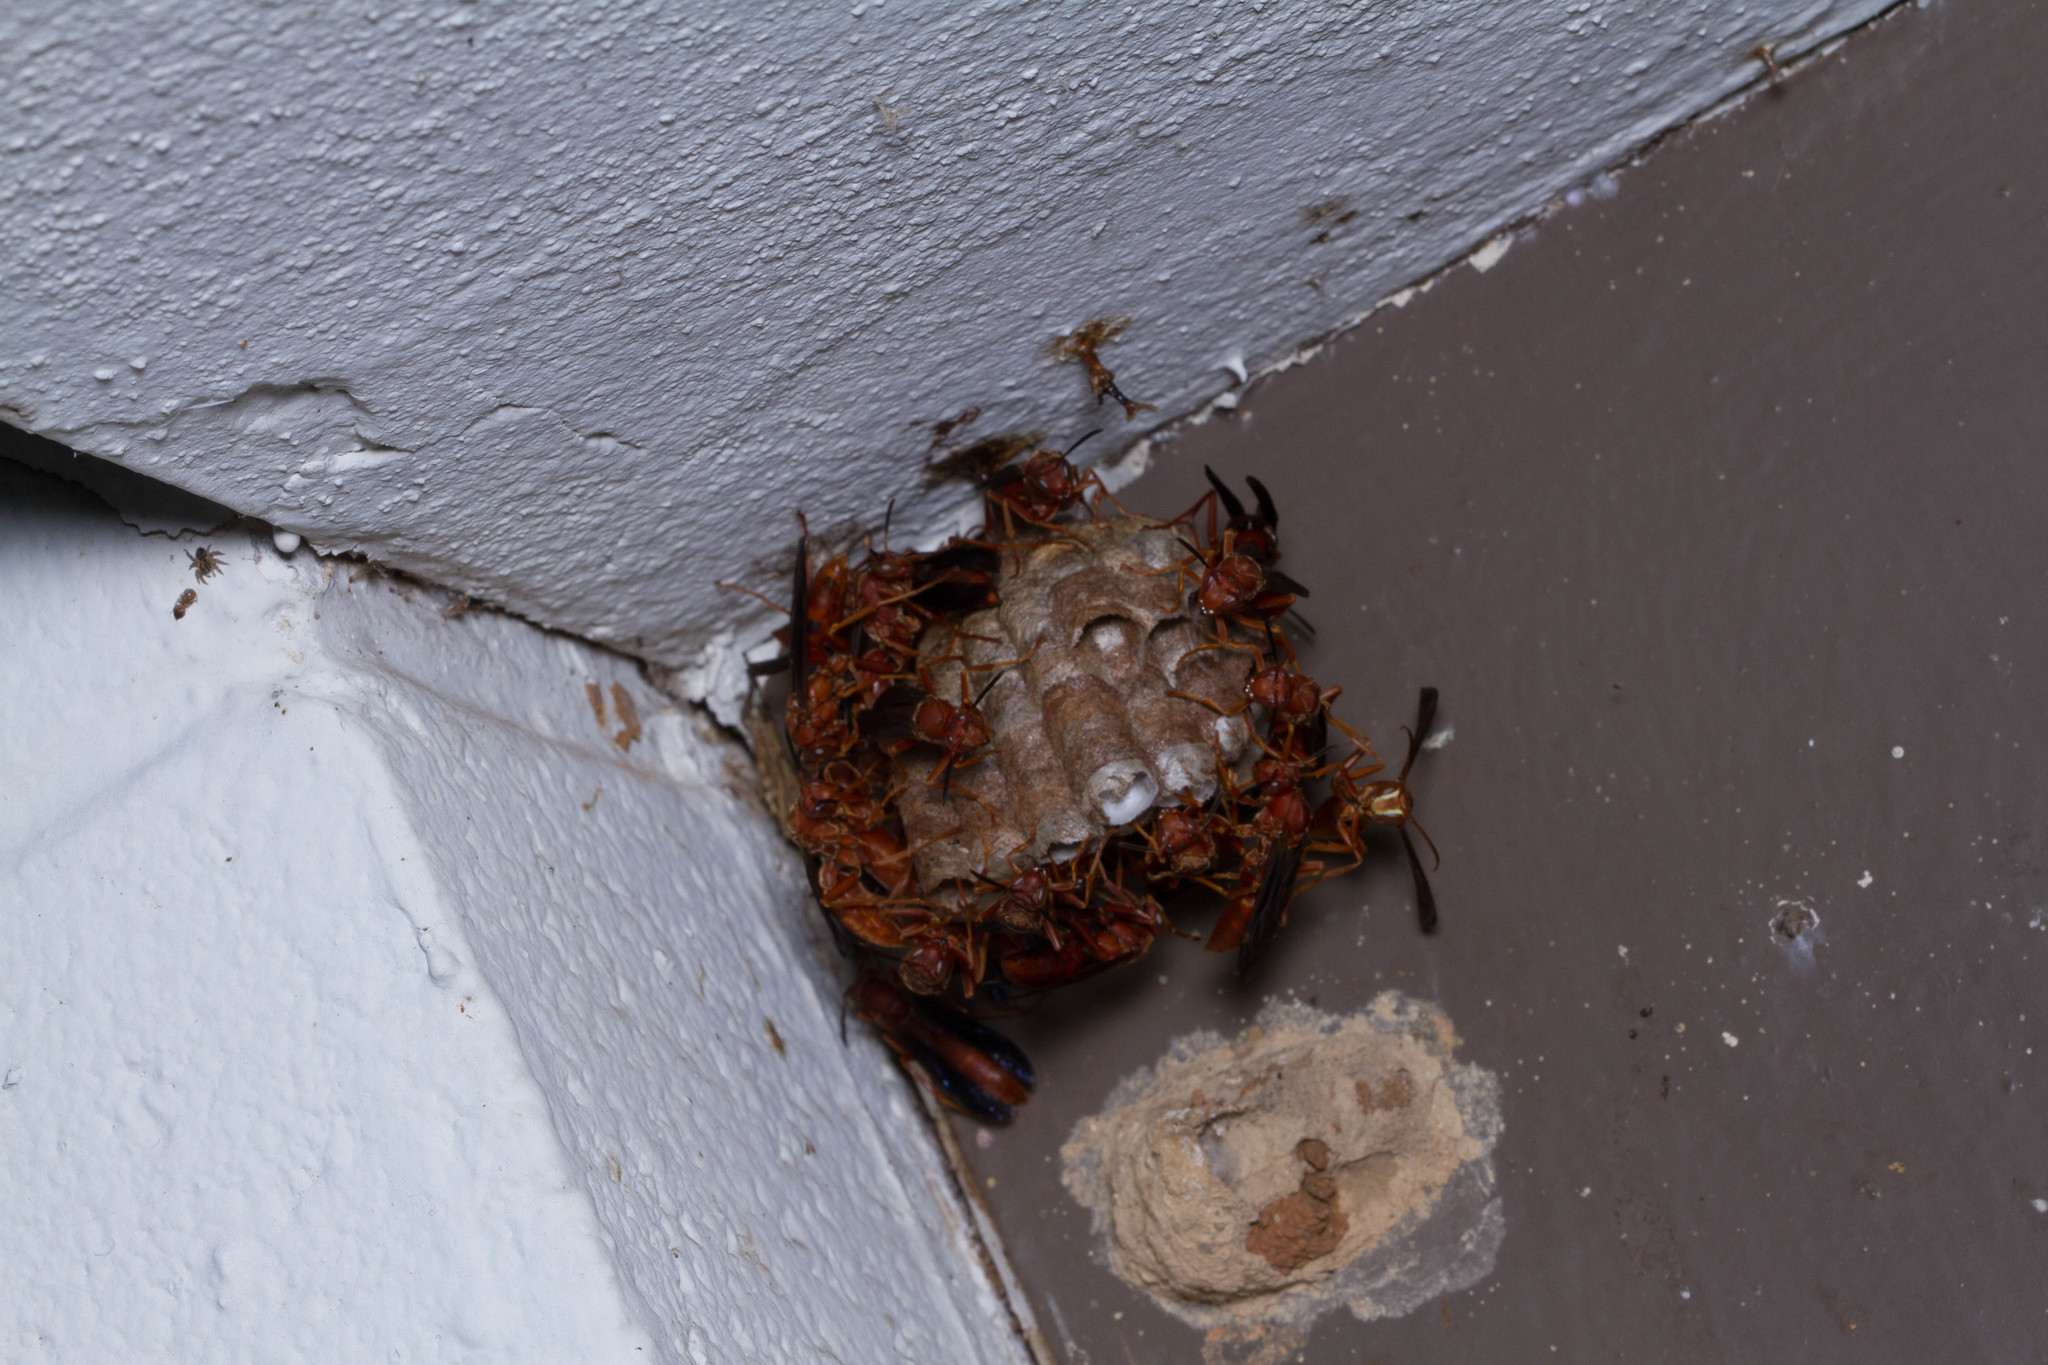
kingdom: Animalia
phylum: Arthropoda
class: Insecta
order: Hymenoptera
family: Eumenidae
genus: Polistes
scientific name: Polistes
